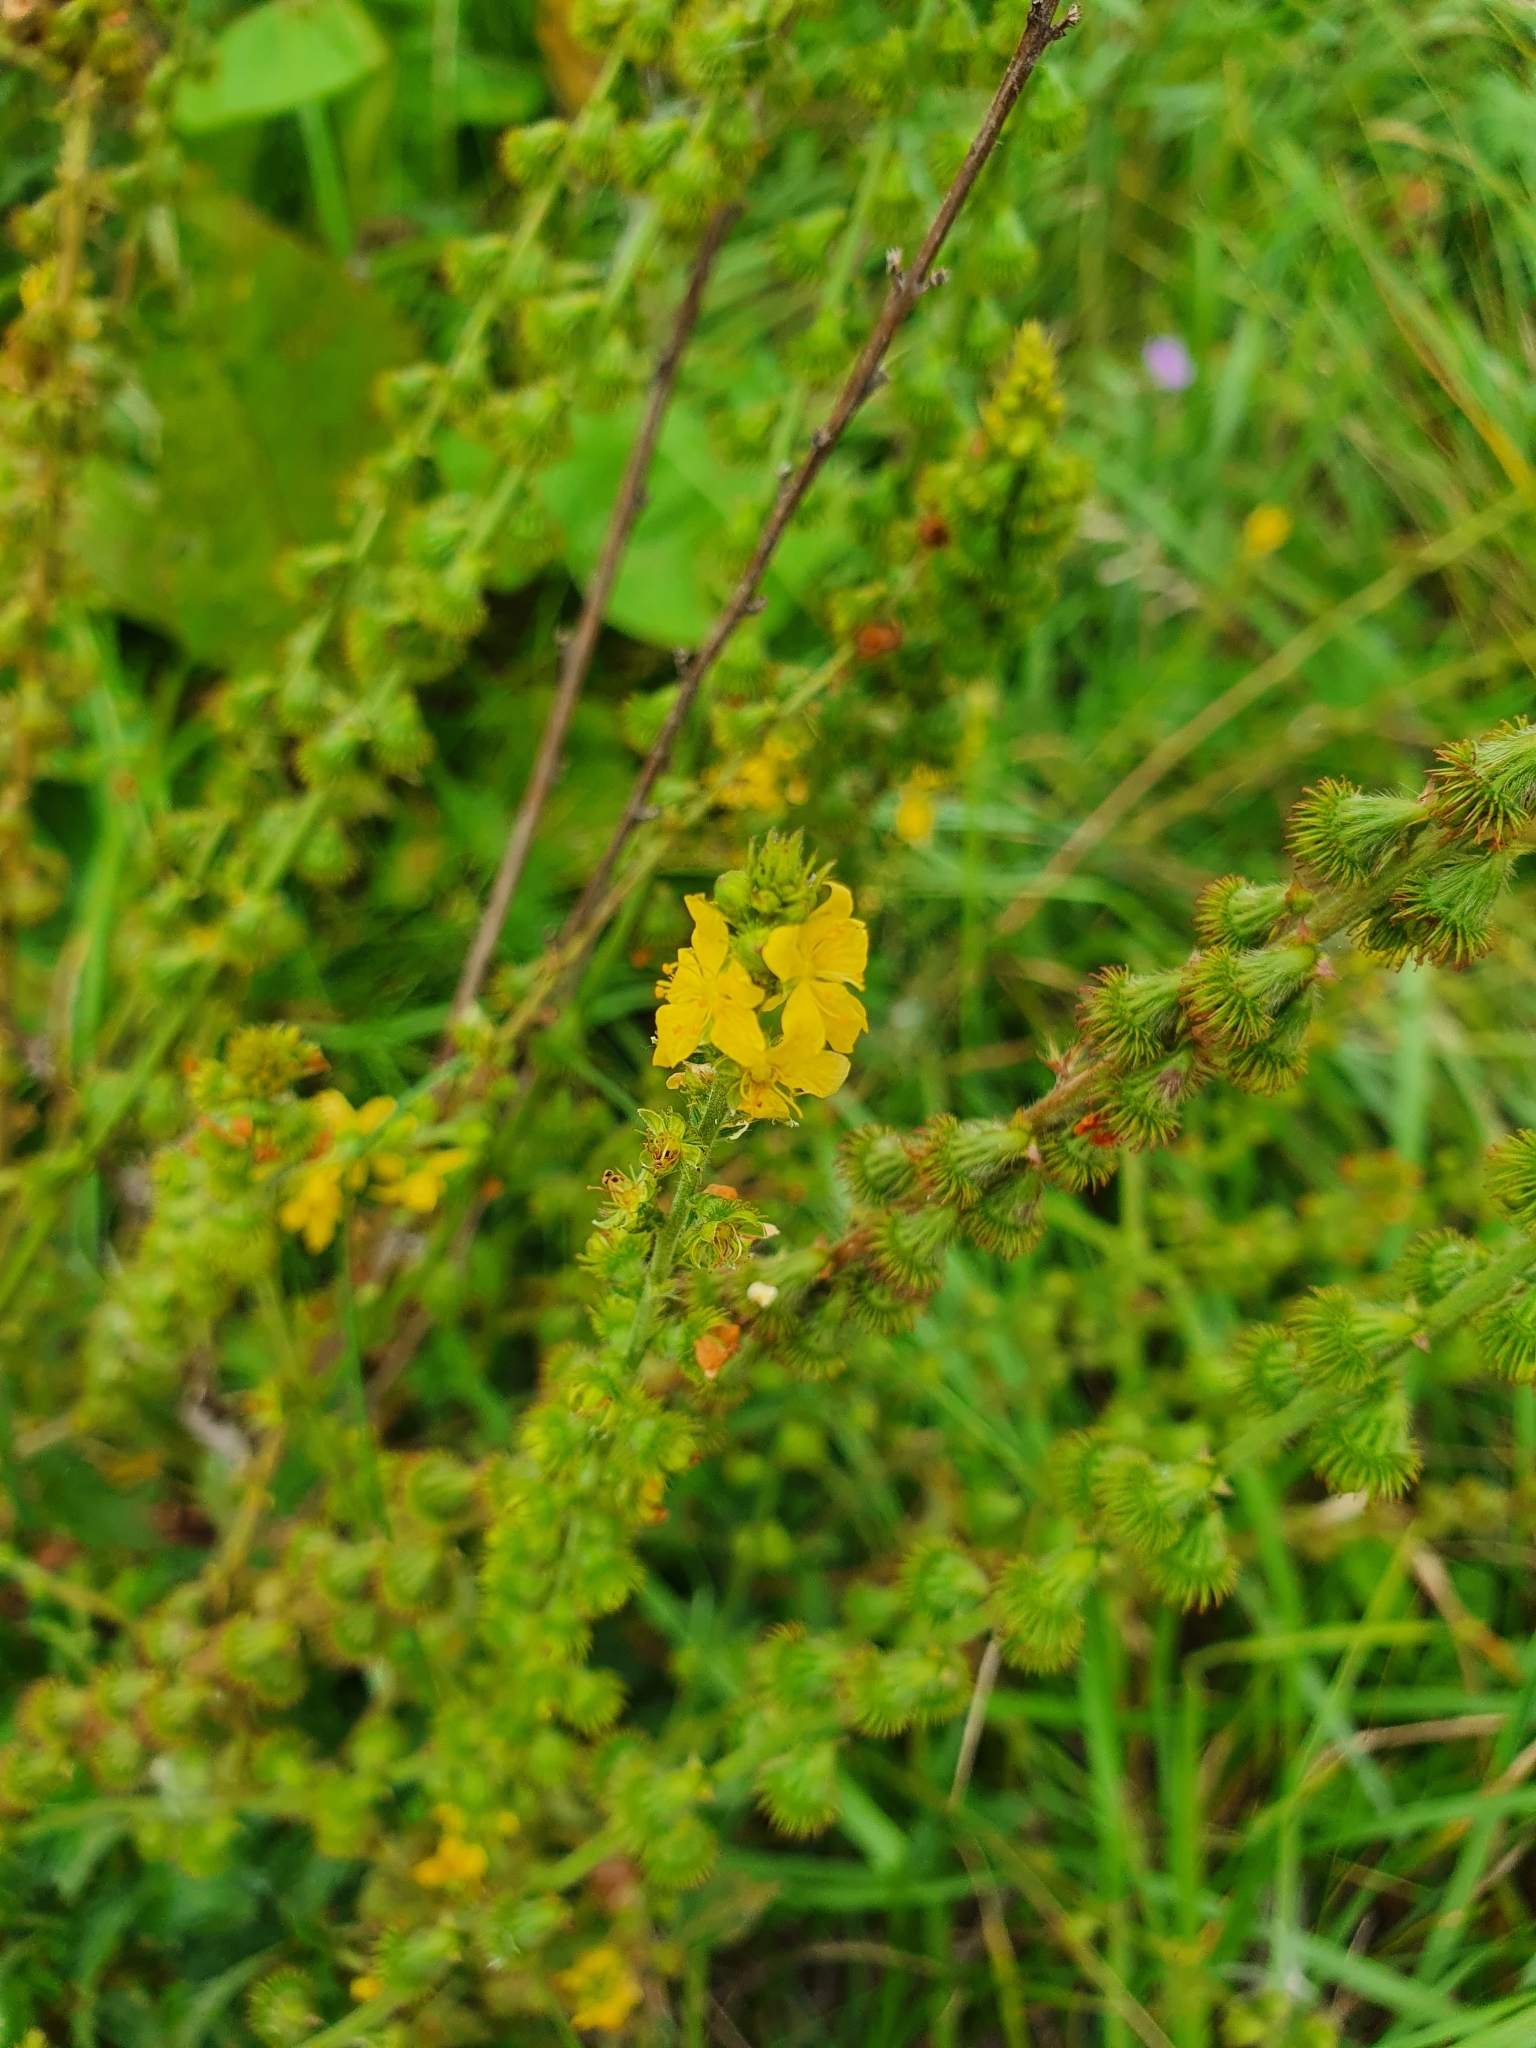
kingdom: Plantae
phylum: Tracheophyta
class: Magnoliopsida
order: Rosales
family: Rosaceae
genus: Agrimonia
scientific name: Agrimonia eupatoria
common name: Agrimony
